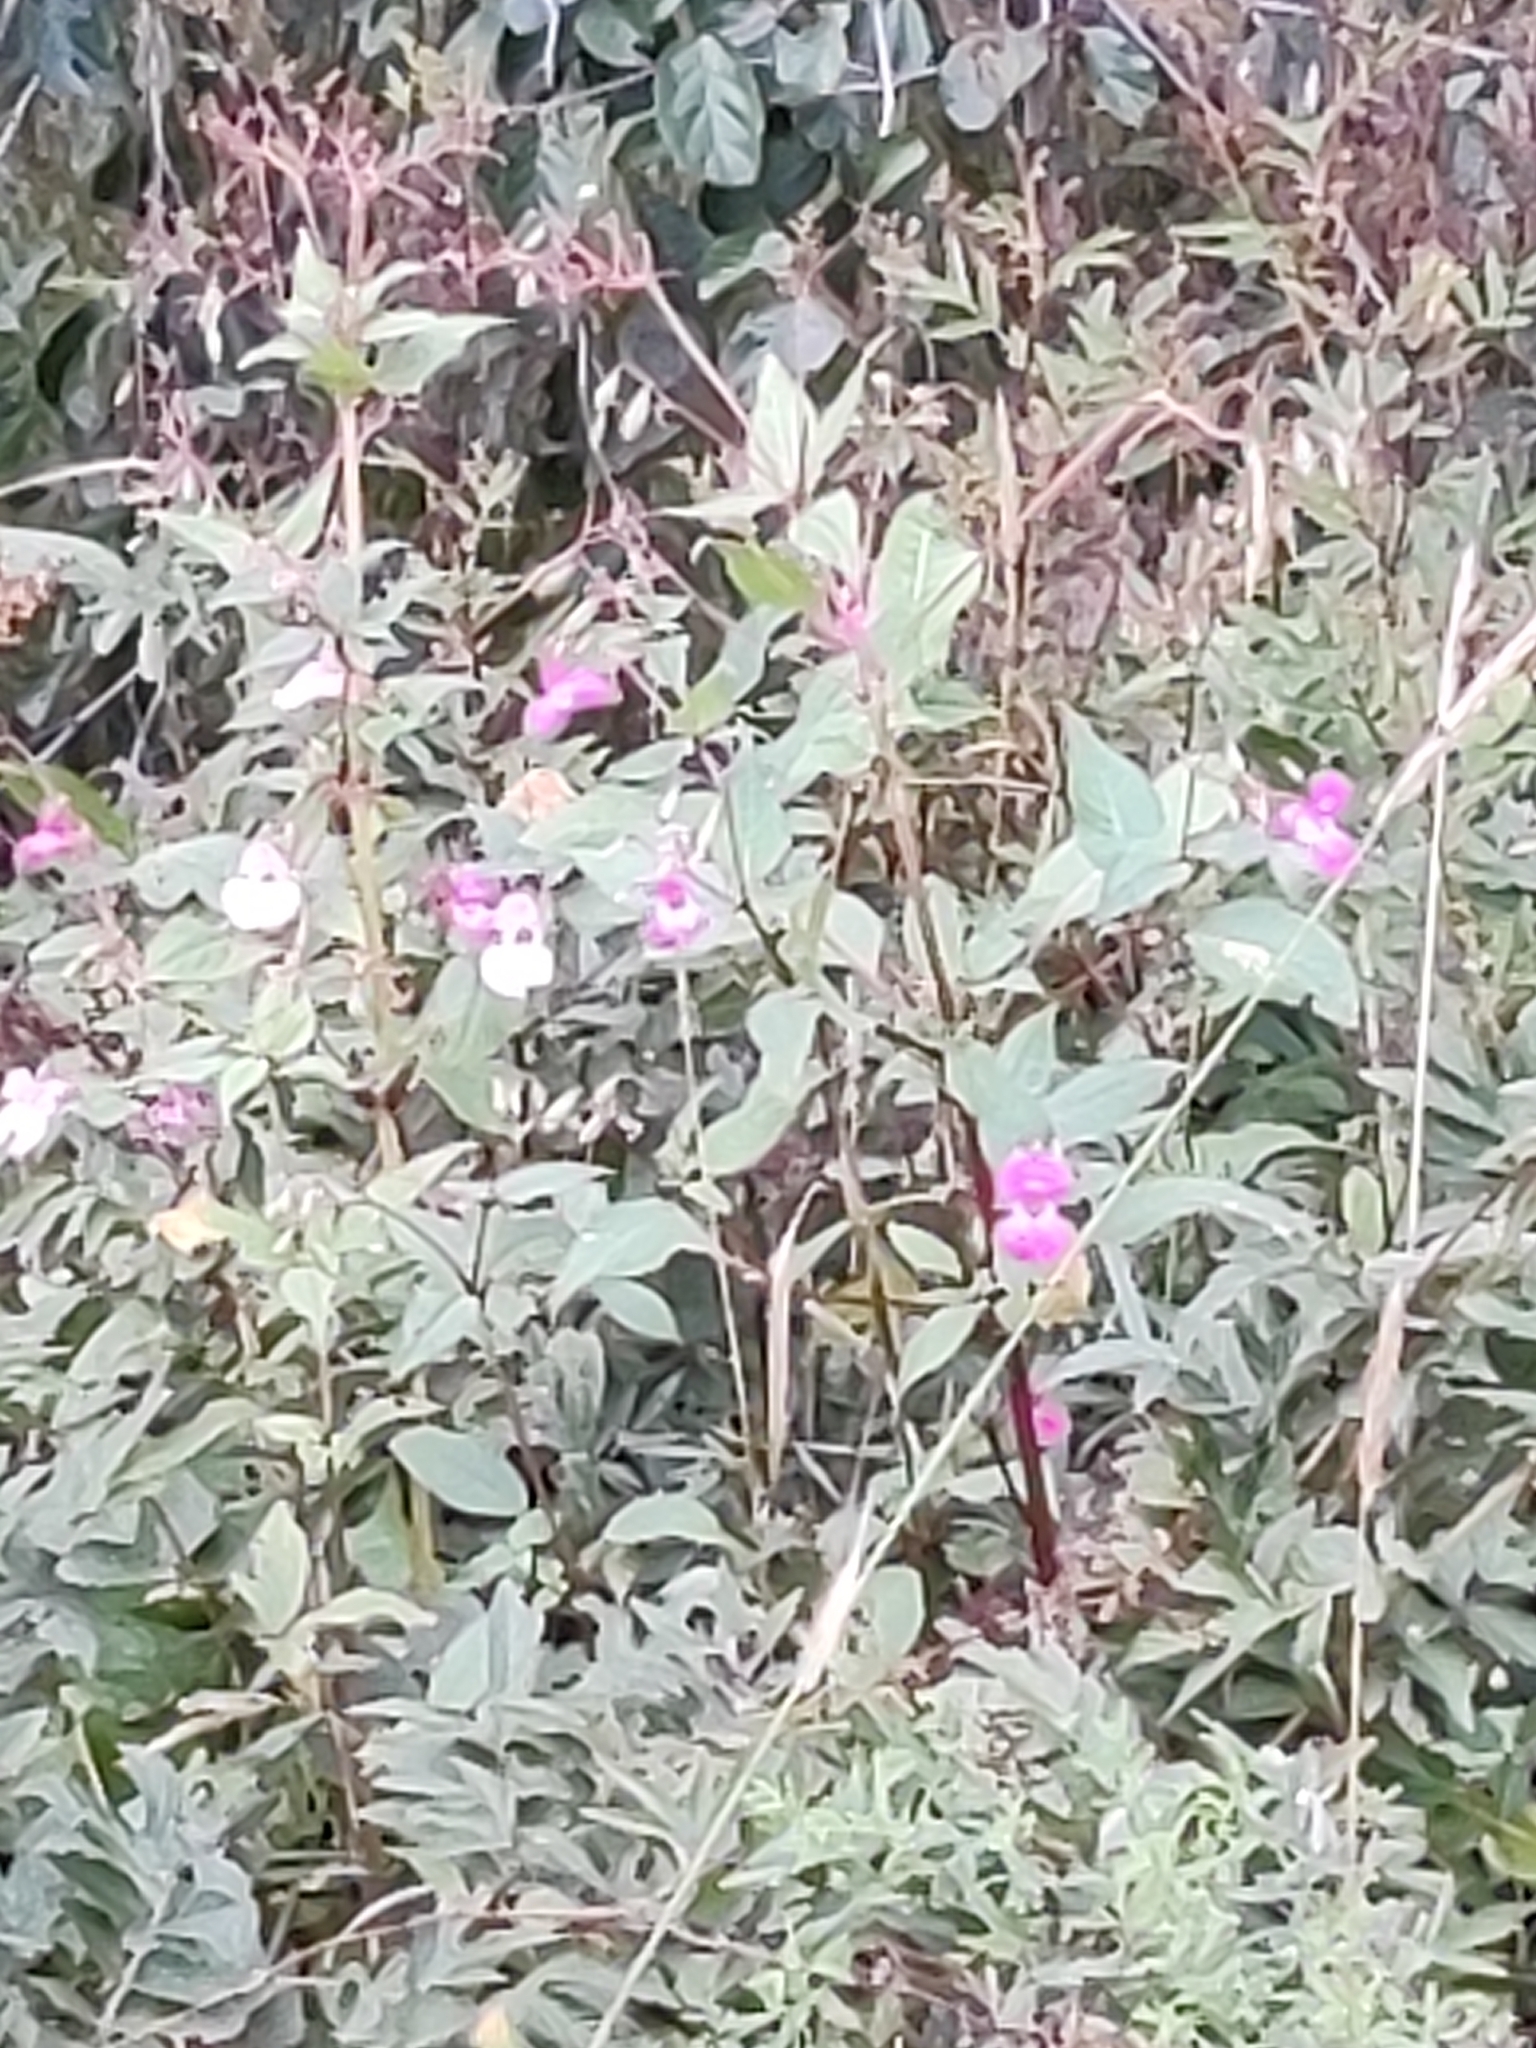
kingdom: Plantae
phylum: Tracheophyta
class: Magnoliopsida
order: Ericales
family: Balsaminaceae
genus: Impatiens
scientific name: Impatiens glandulifera
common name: Himalayan balsam
